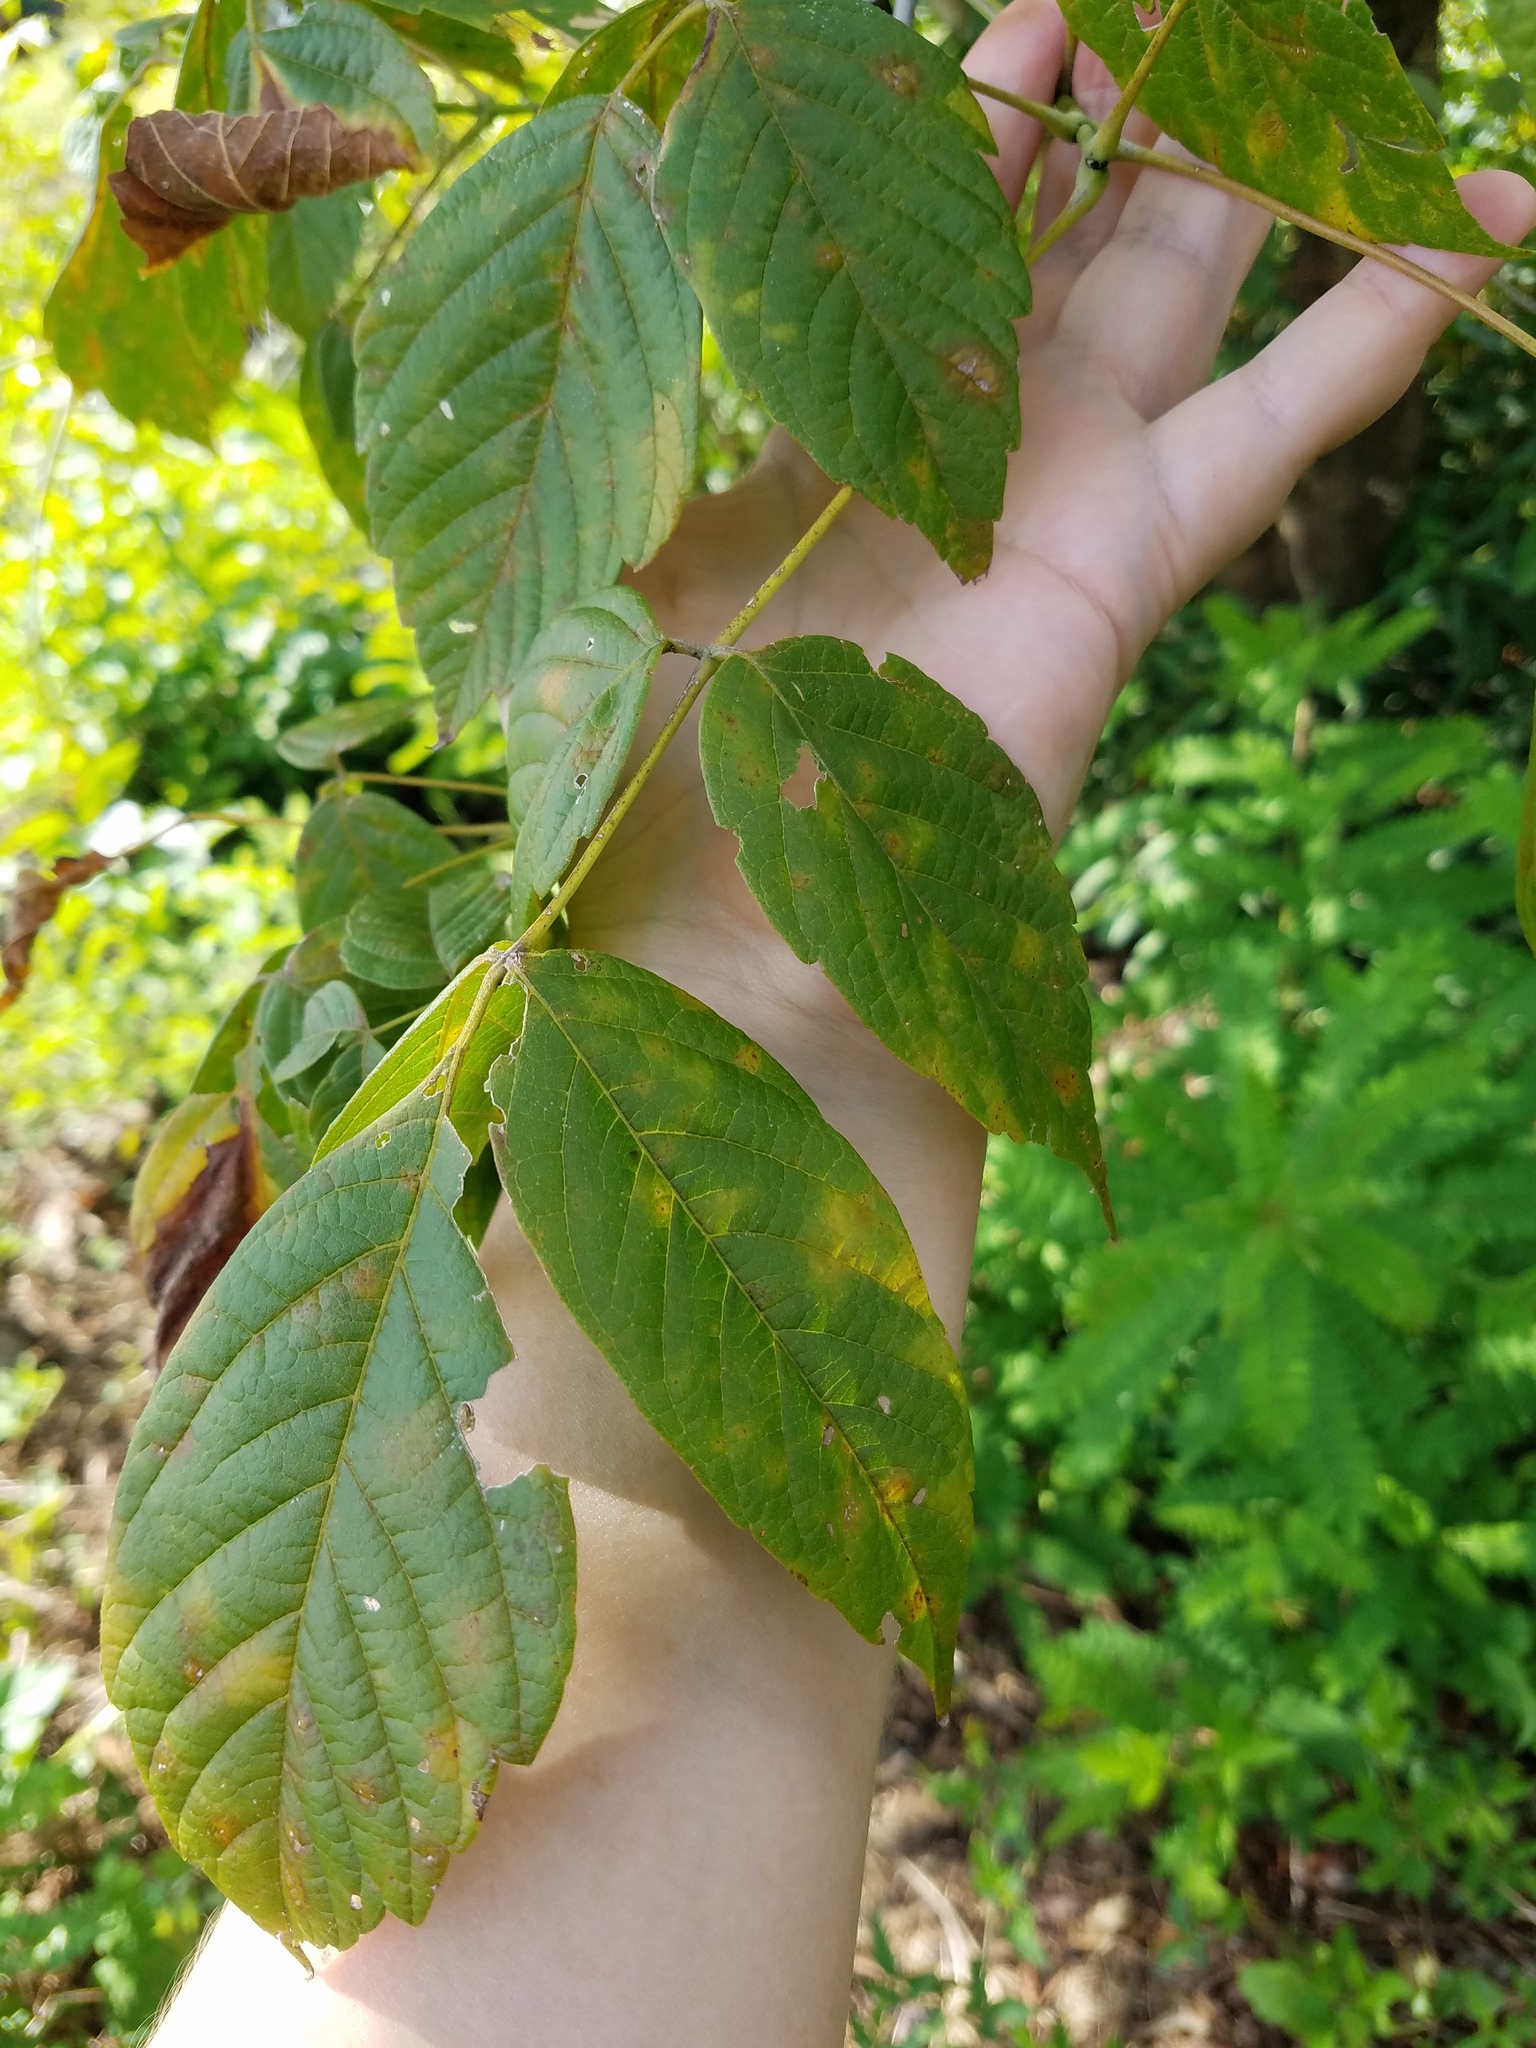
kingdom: Plantae
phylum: Tracheophyta
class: Magnoliopsida
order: Sapindales
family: Sapindaceae
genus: Acer
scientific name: Acer negundo
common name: Ashleaf maple
